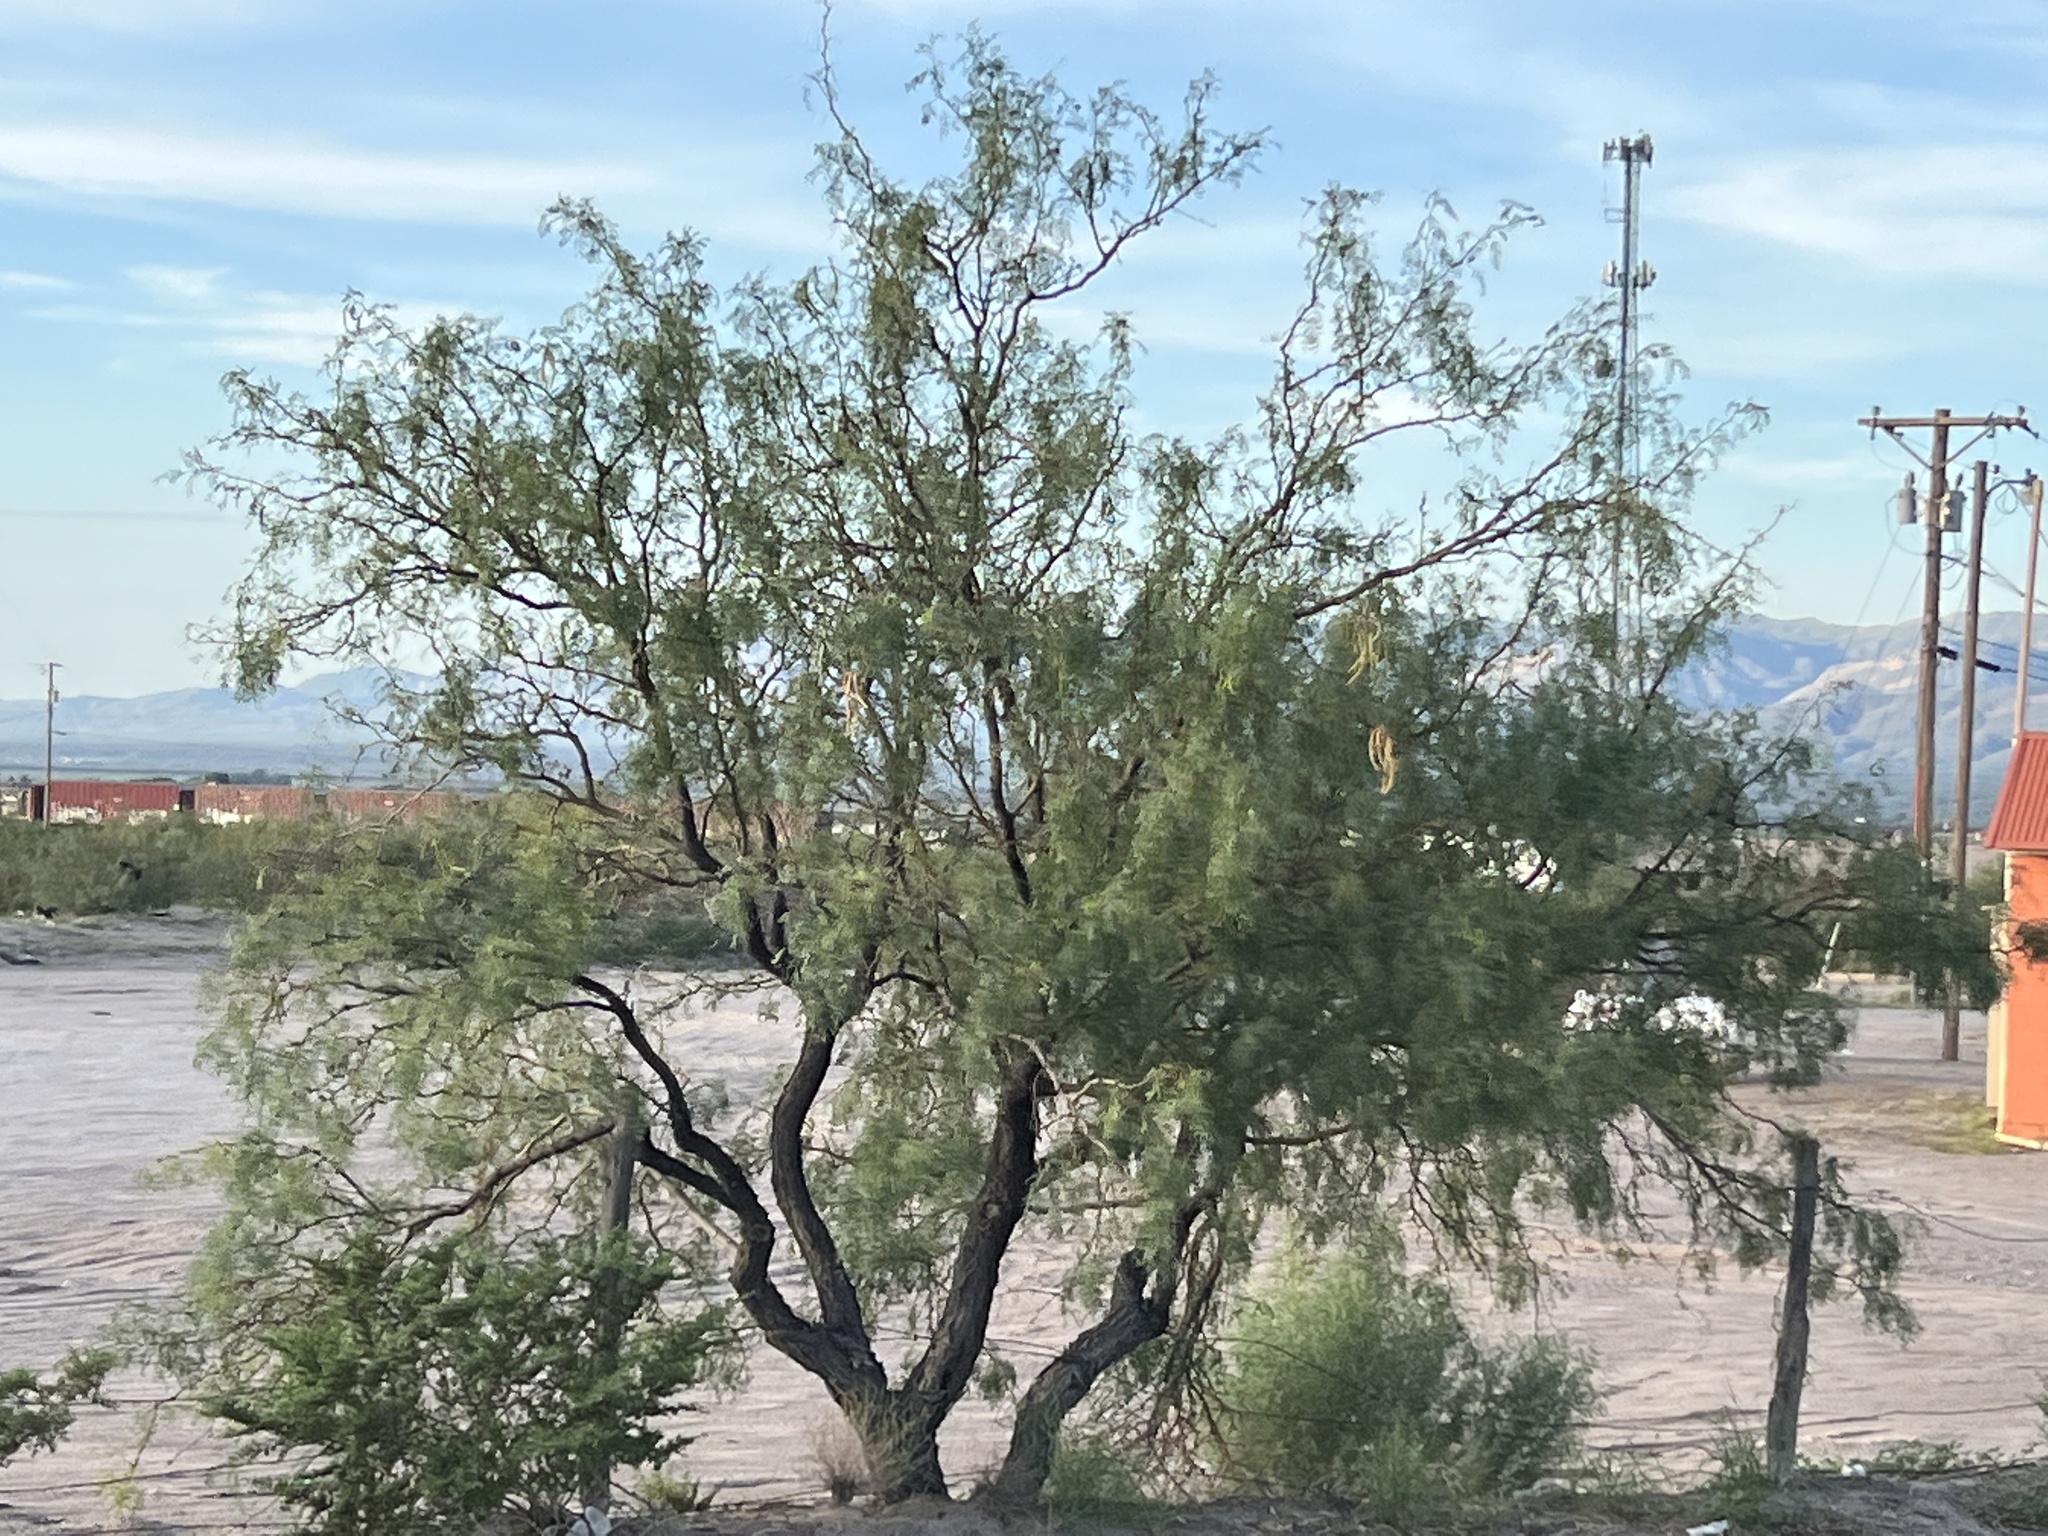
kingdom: Plantae
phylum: Tracheophyta
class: Magnoliopsida
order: Fabales
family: Fabaceae
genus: Prosopis
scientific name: Prosopis glandulosa
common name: Honey mesquite
